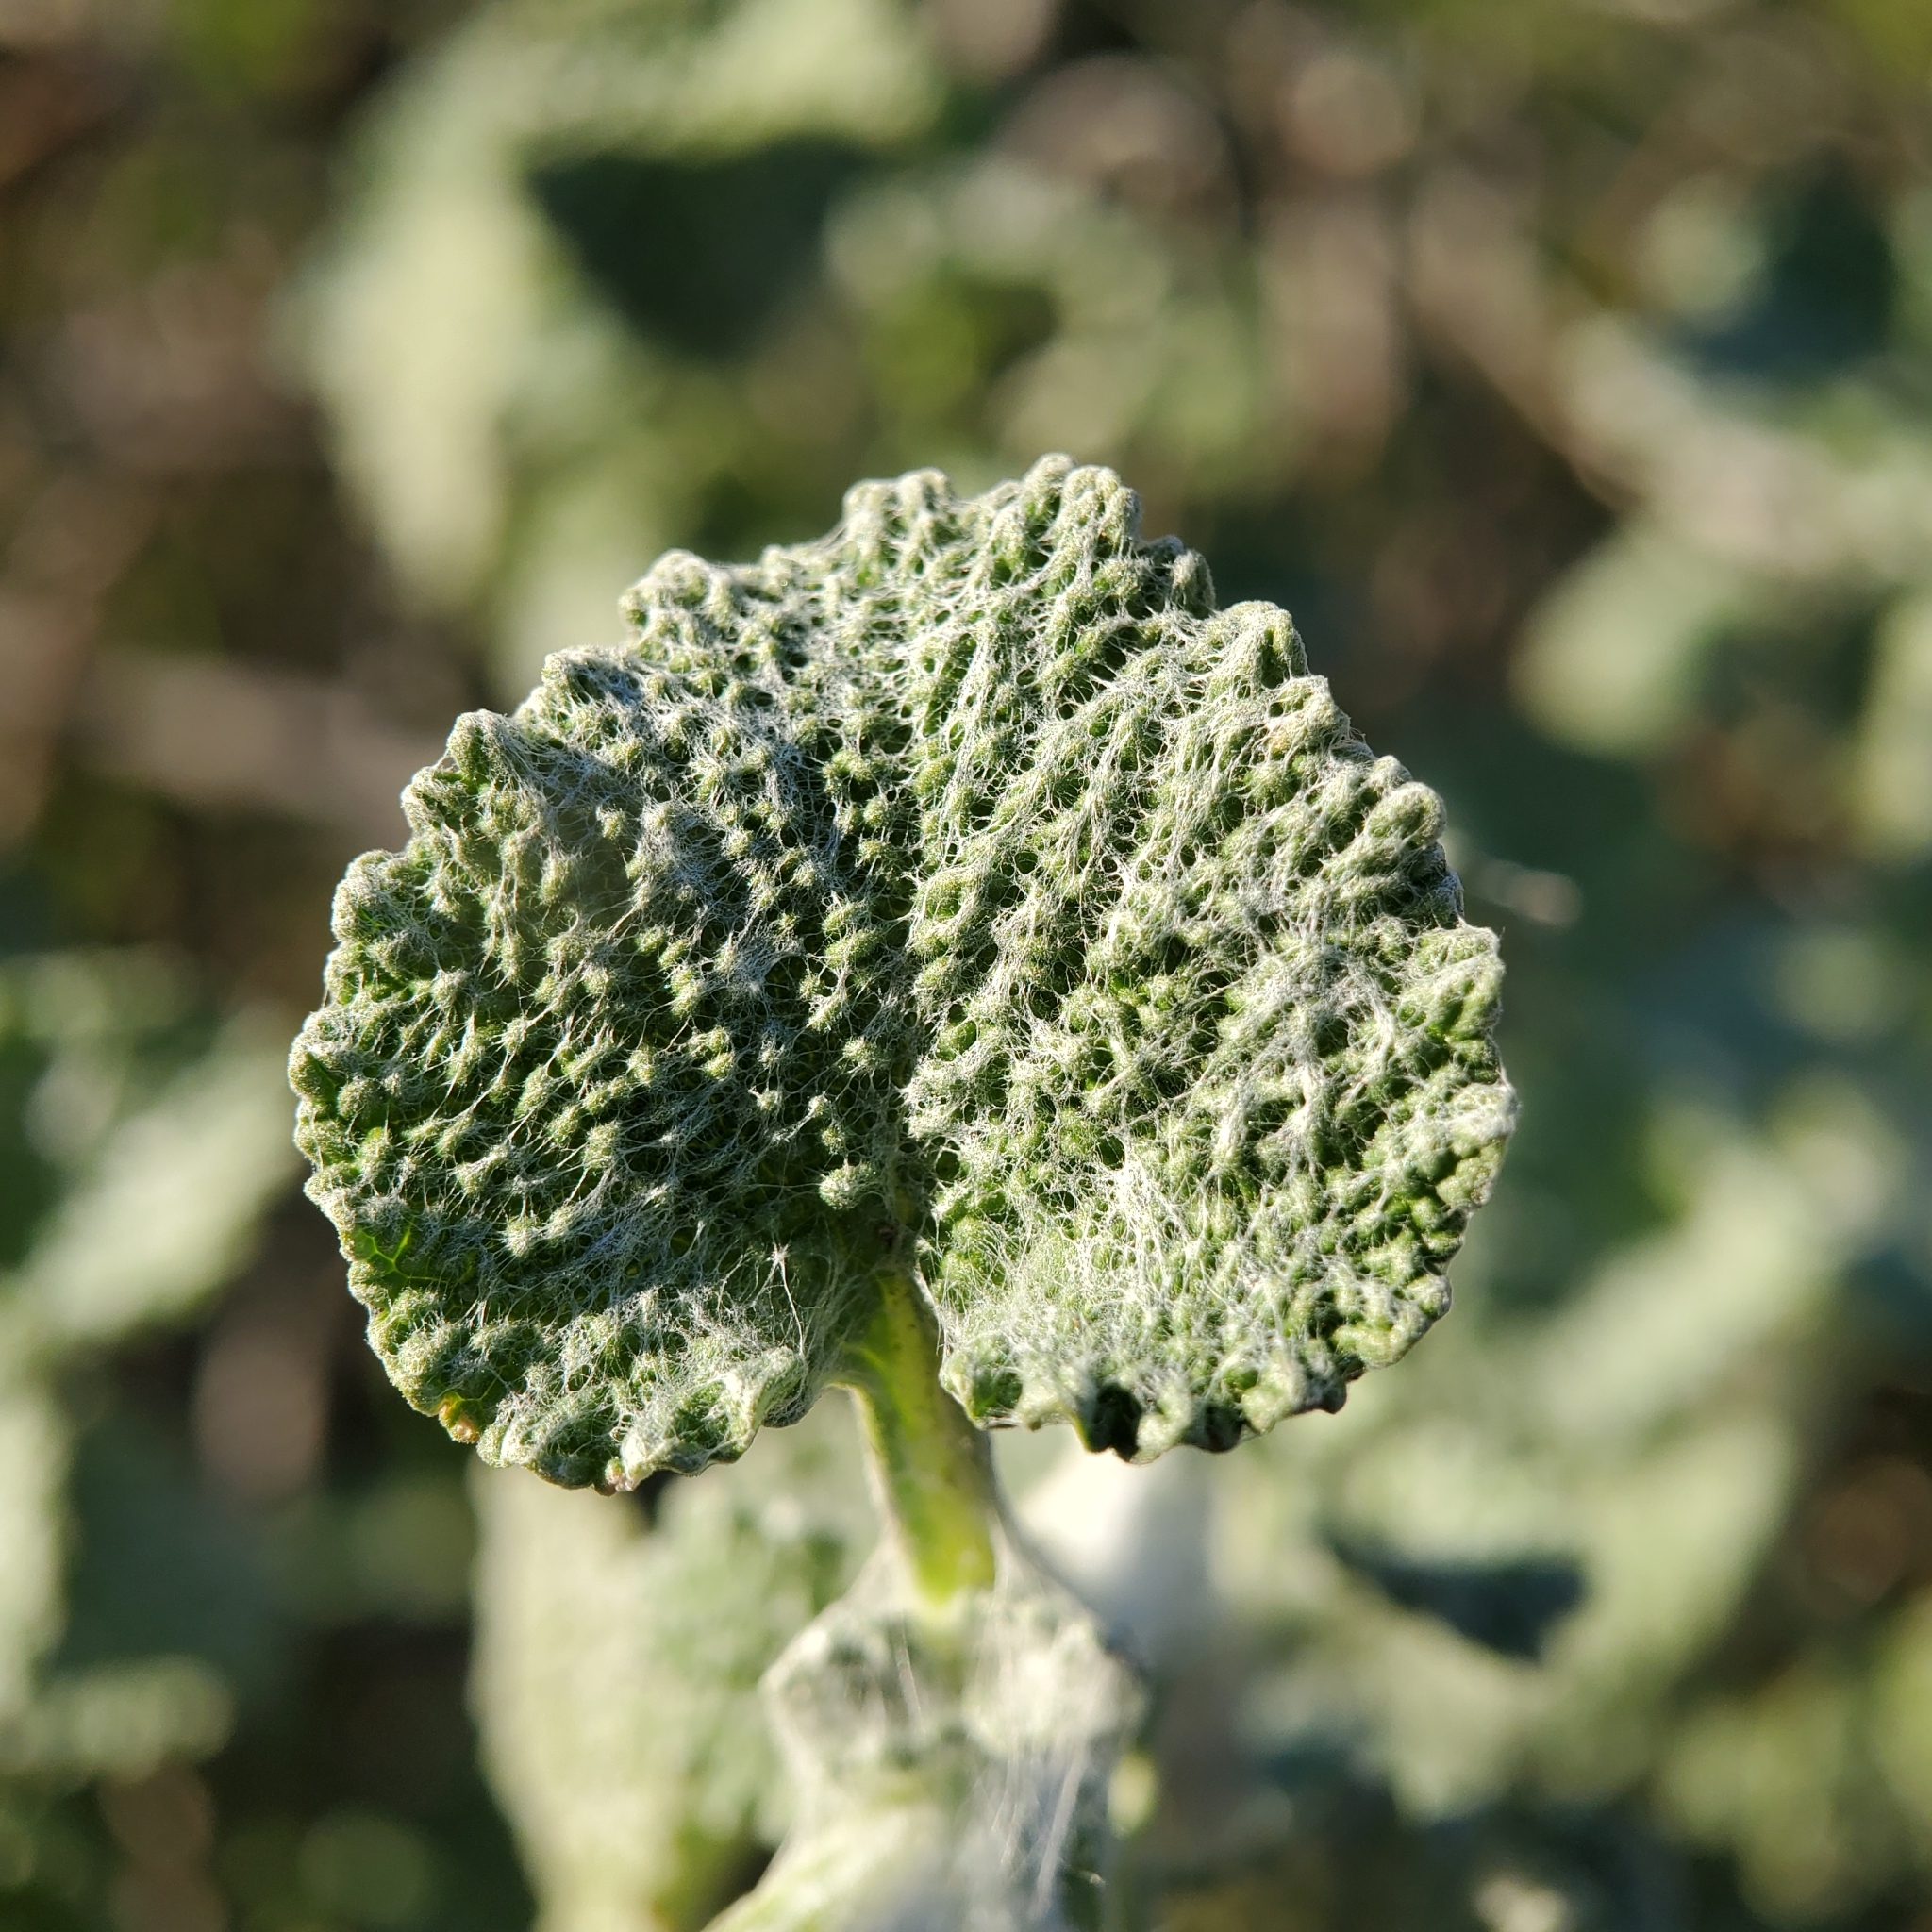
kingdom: Plantae
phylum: Tracheophyta
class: Magnoliopsida
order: Lamiales
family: Lamiaceae
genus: Marrubium
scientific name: Marrubium vulgare
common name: Horehound
